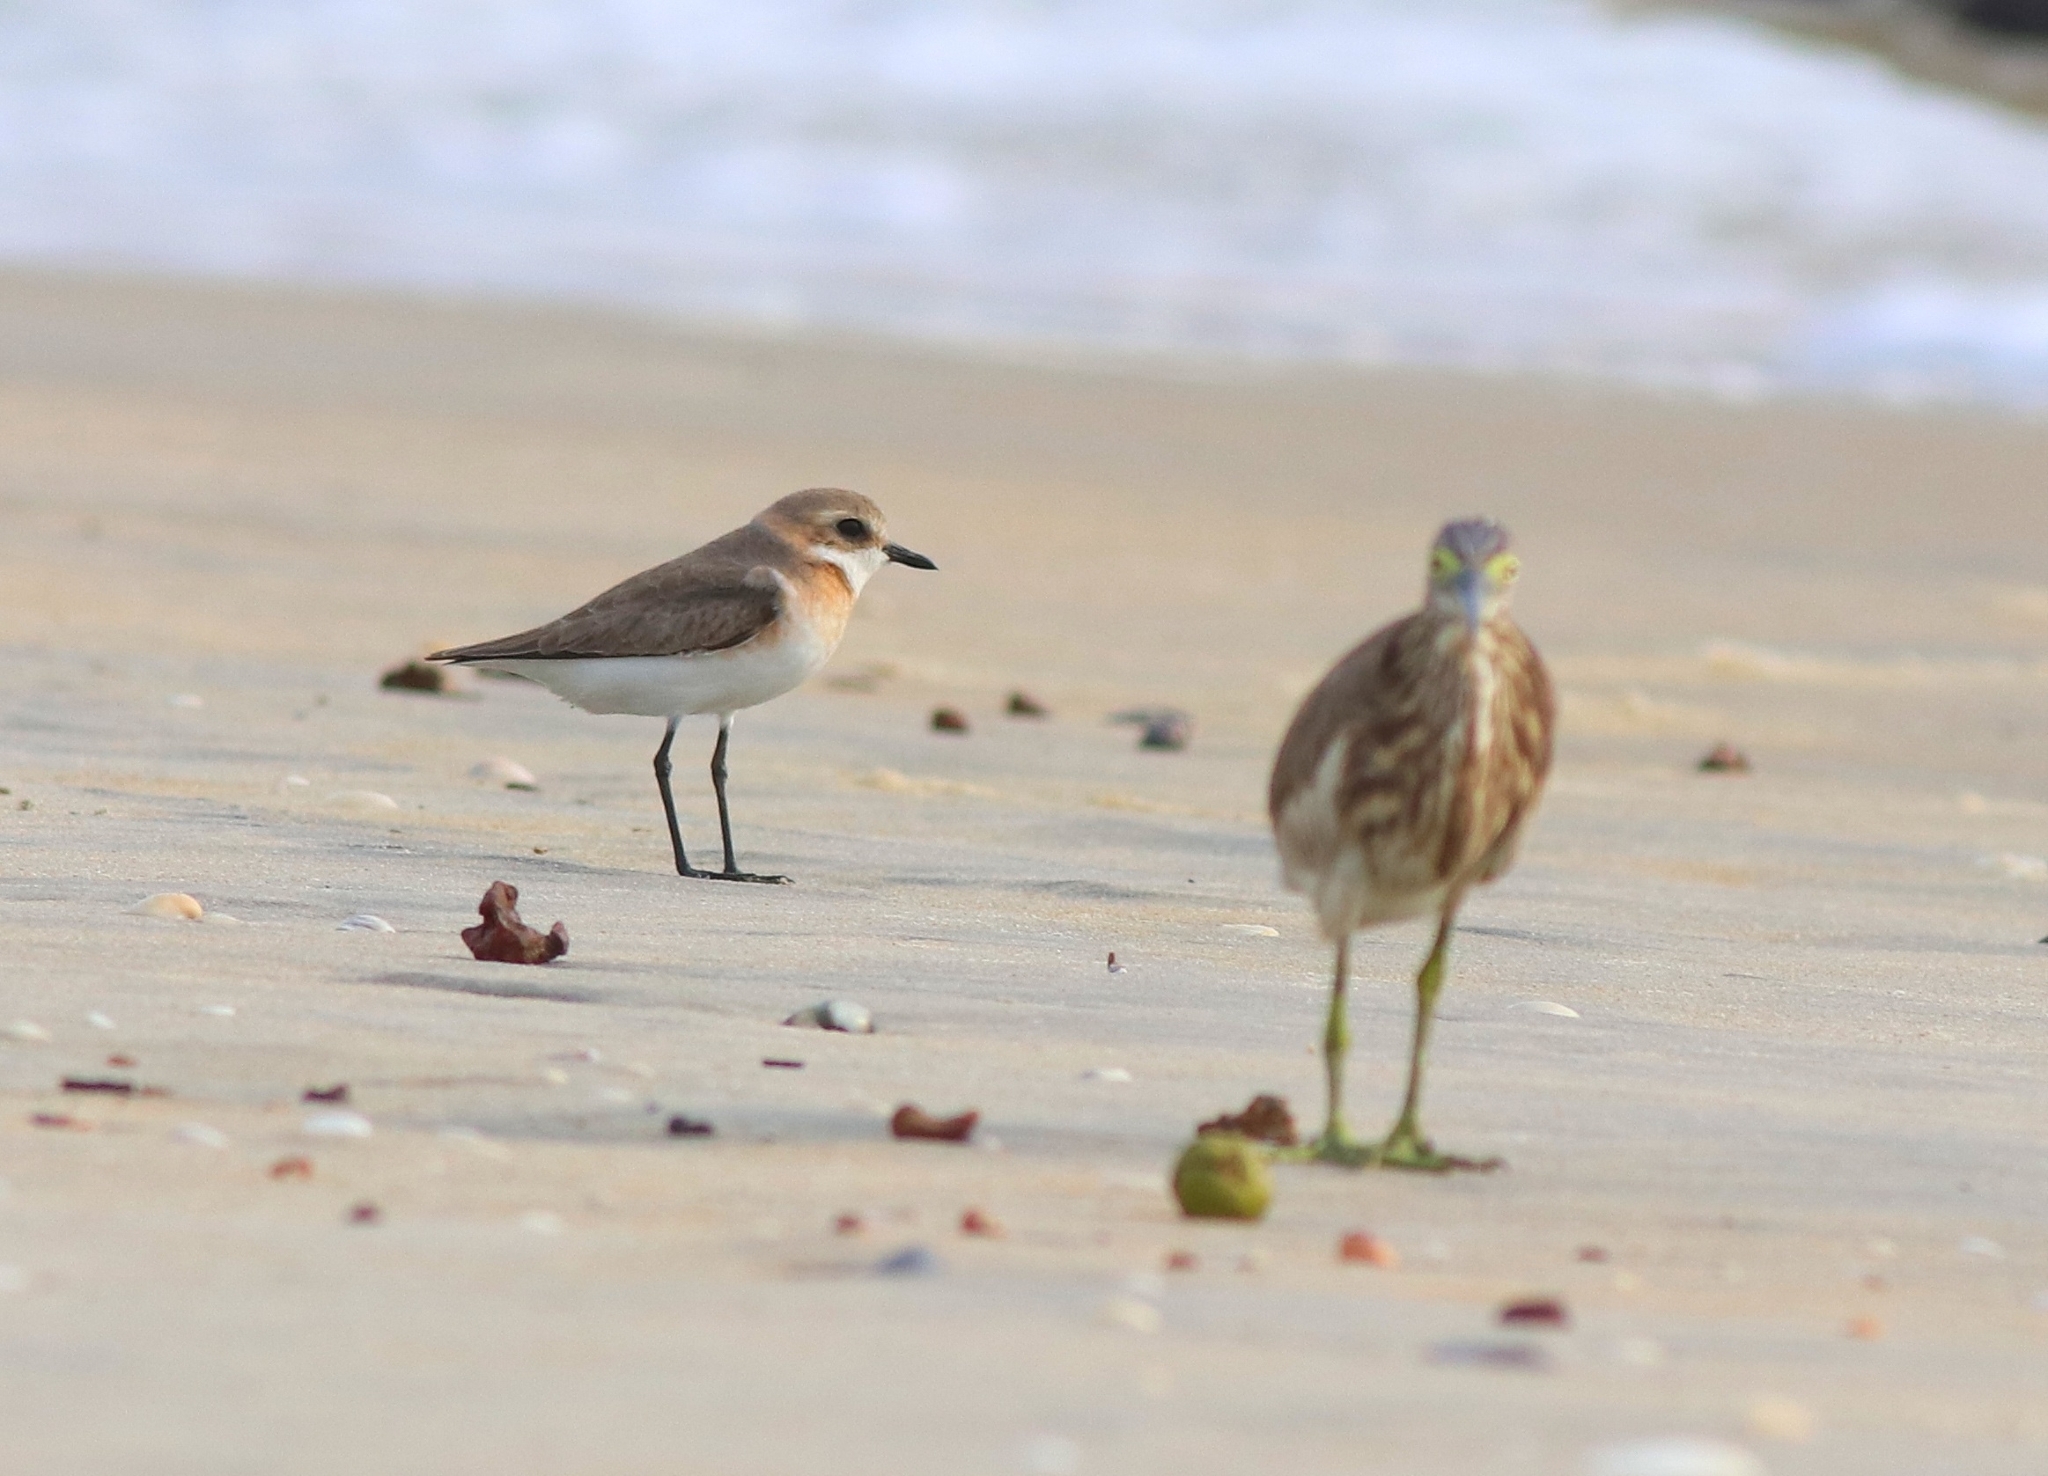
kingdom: Animalia
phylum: Chordata
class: Aves
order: Charadriiformes
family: Charadriidae
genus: Anarhynchus
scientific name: Anarhynchus
